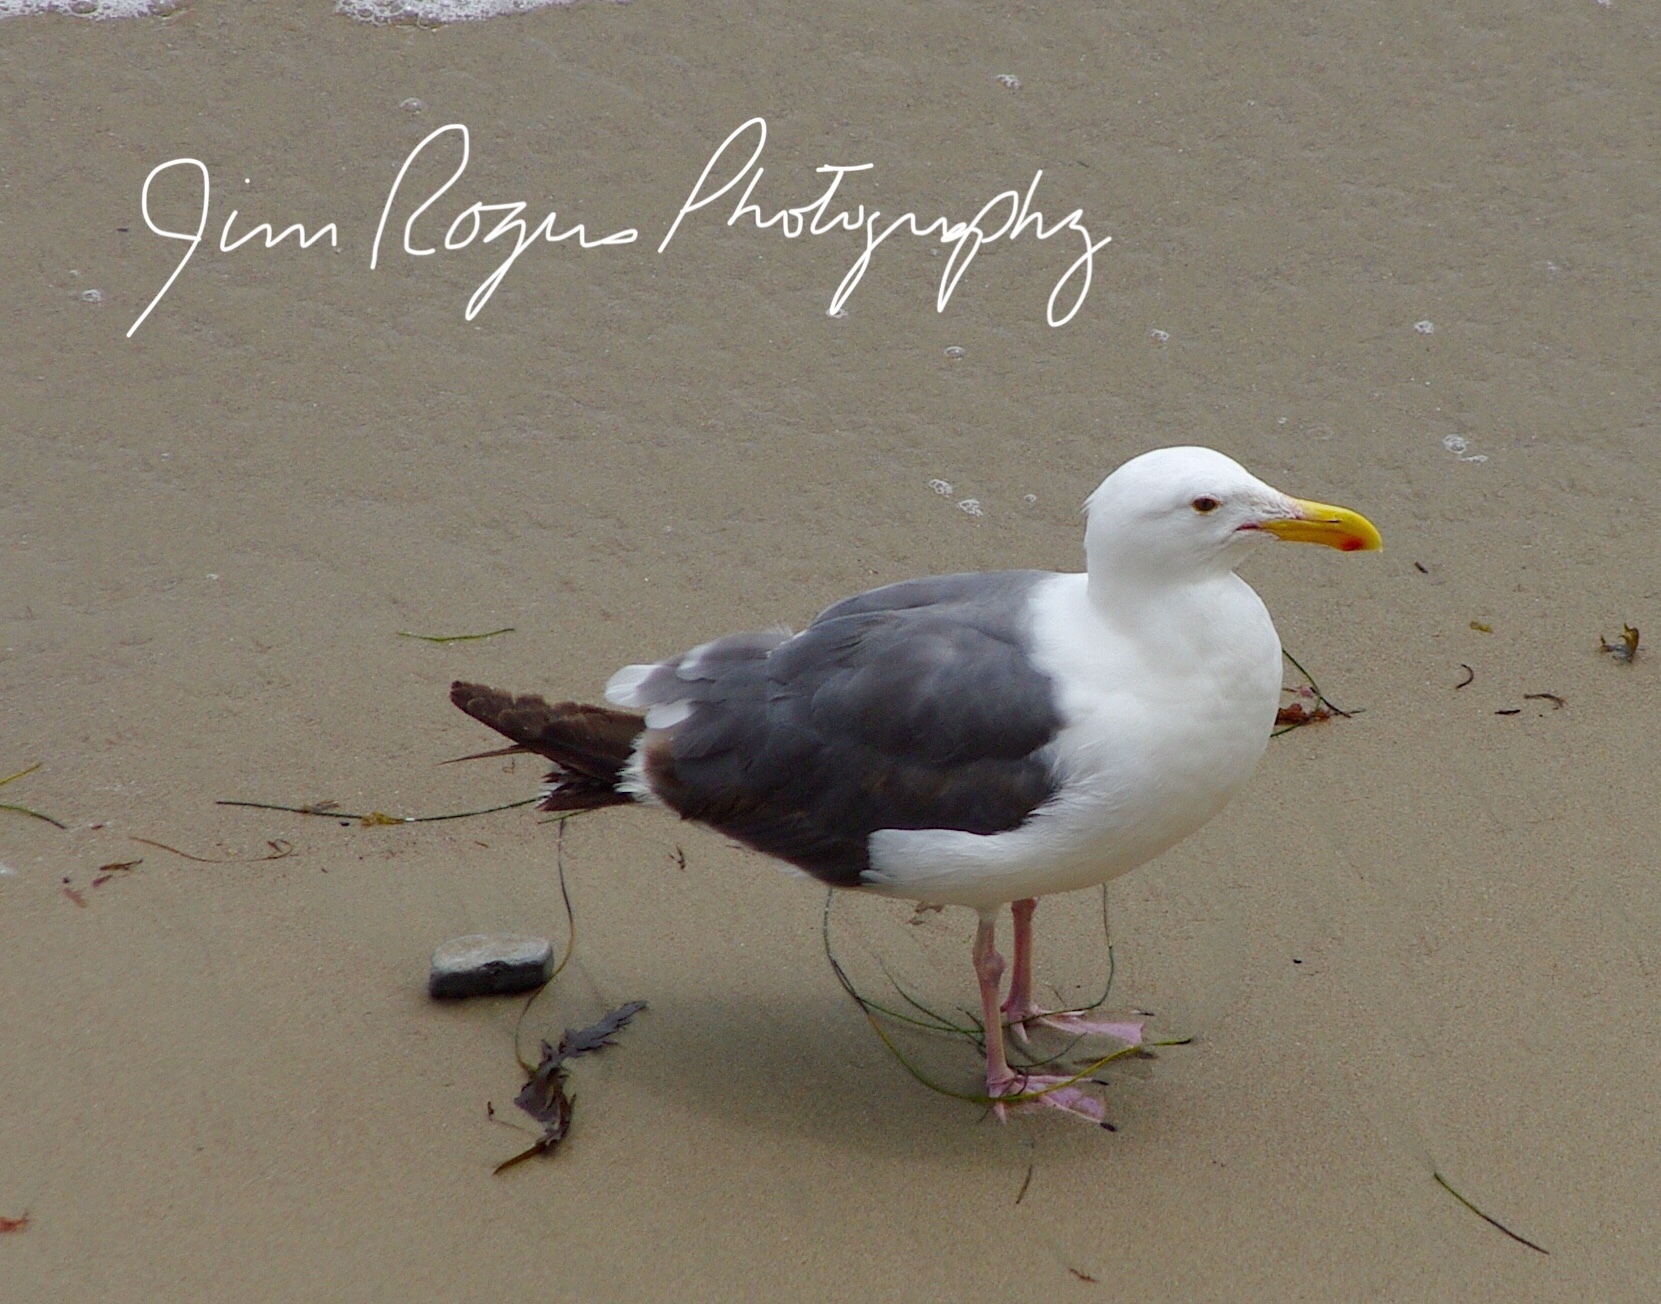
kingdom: Animalia
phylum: Chordata
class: Aves
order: Charadriiformes
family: Laridae
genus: Larus
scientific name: Larus occidentalis
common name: Western gull
